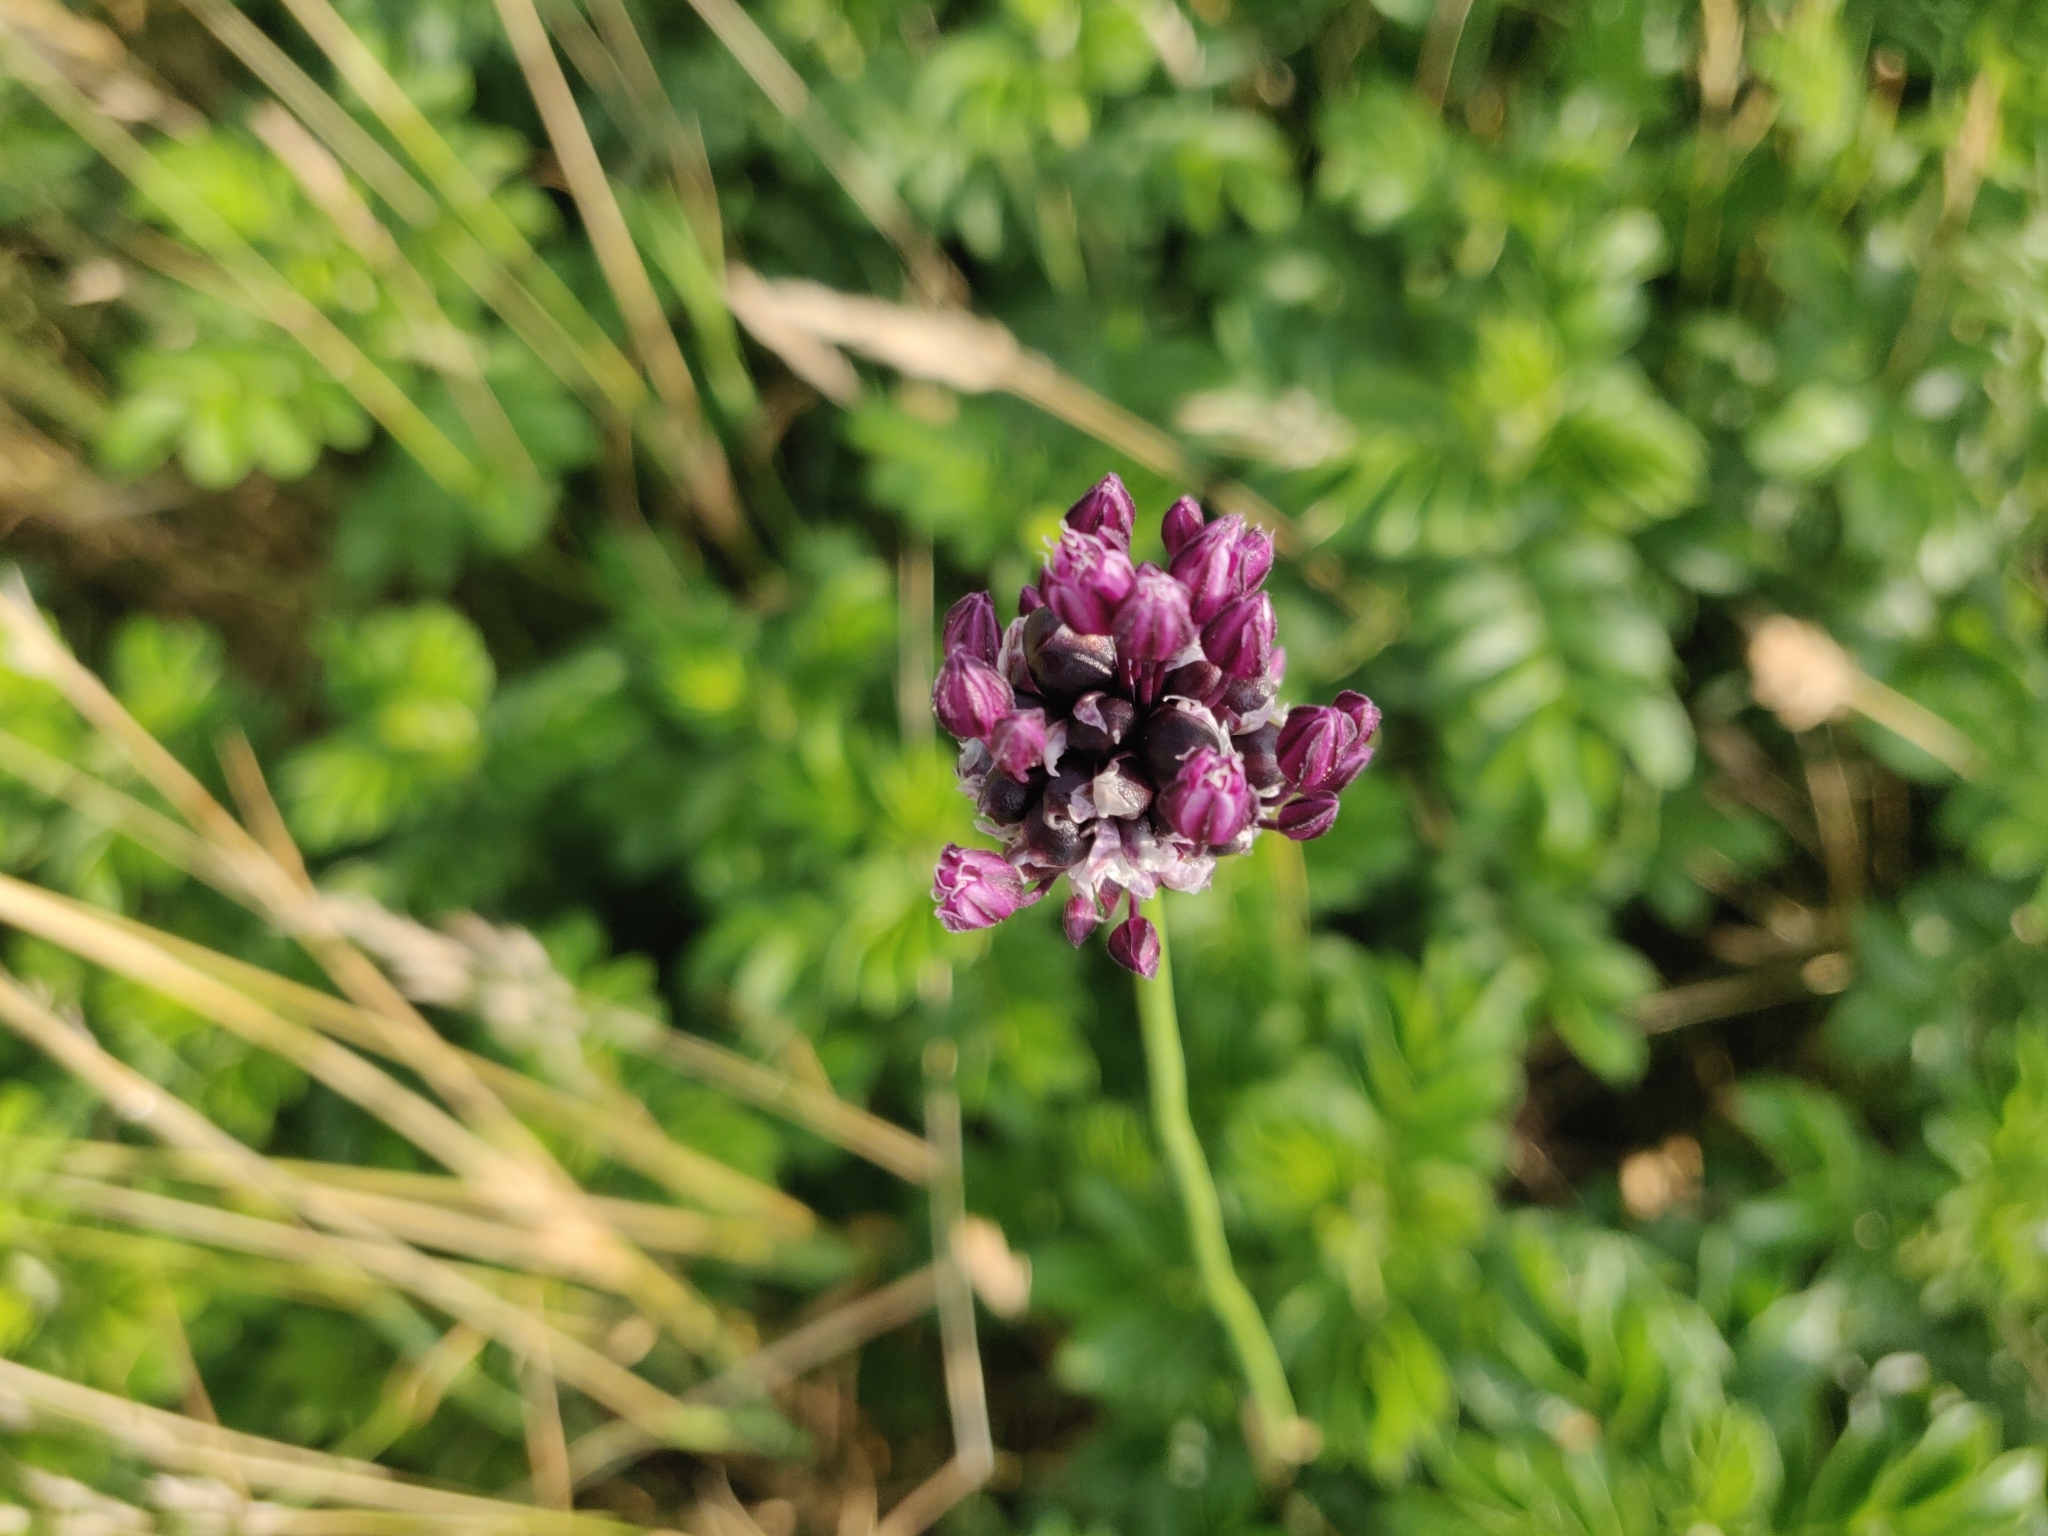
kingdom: Plantae
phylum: Tracheophyta
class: Liliopsida
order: Asparagales
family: Amaryllidaceae
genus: Allium
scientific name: Allium scorodoprasum
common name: Sand leek
